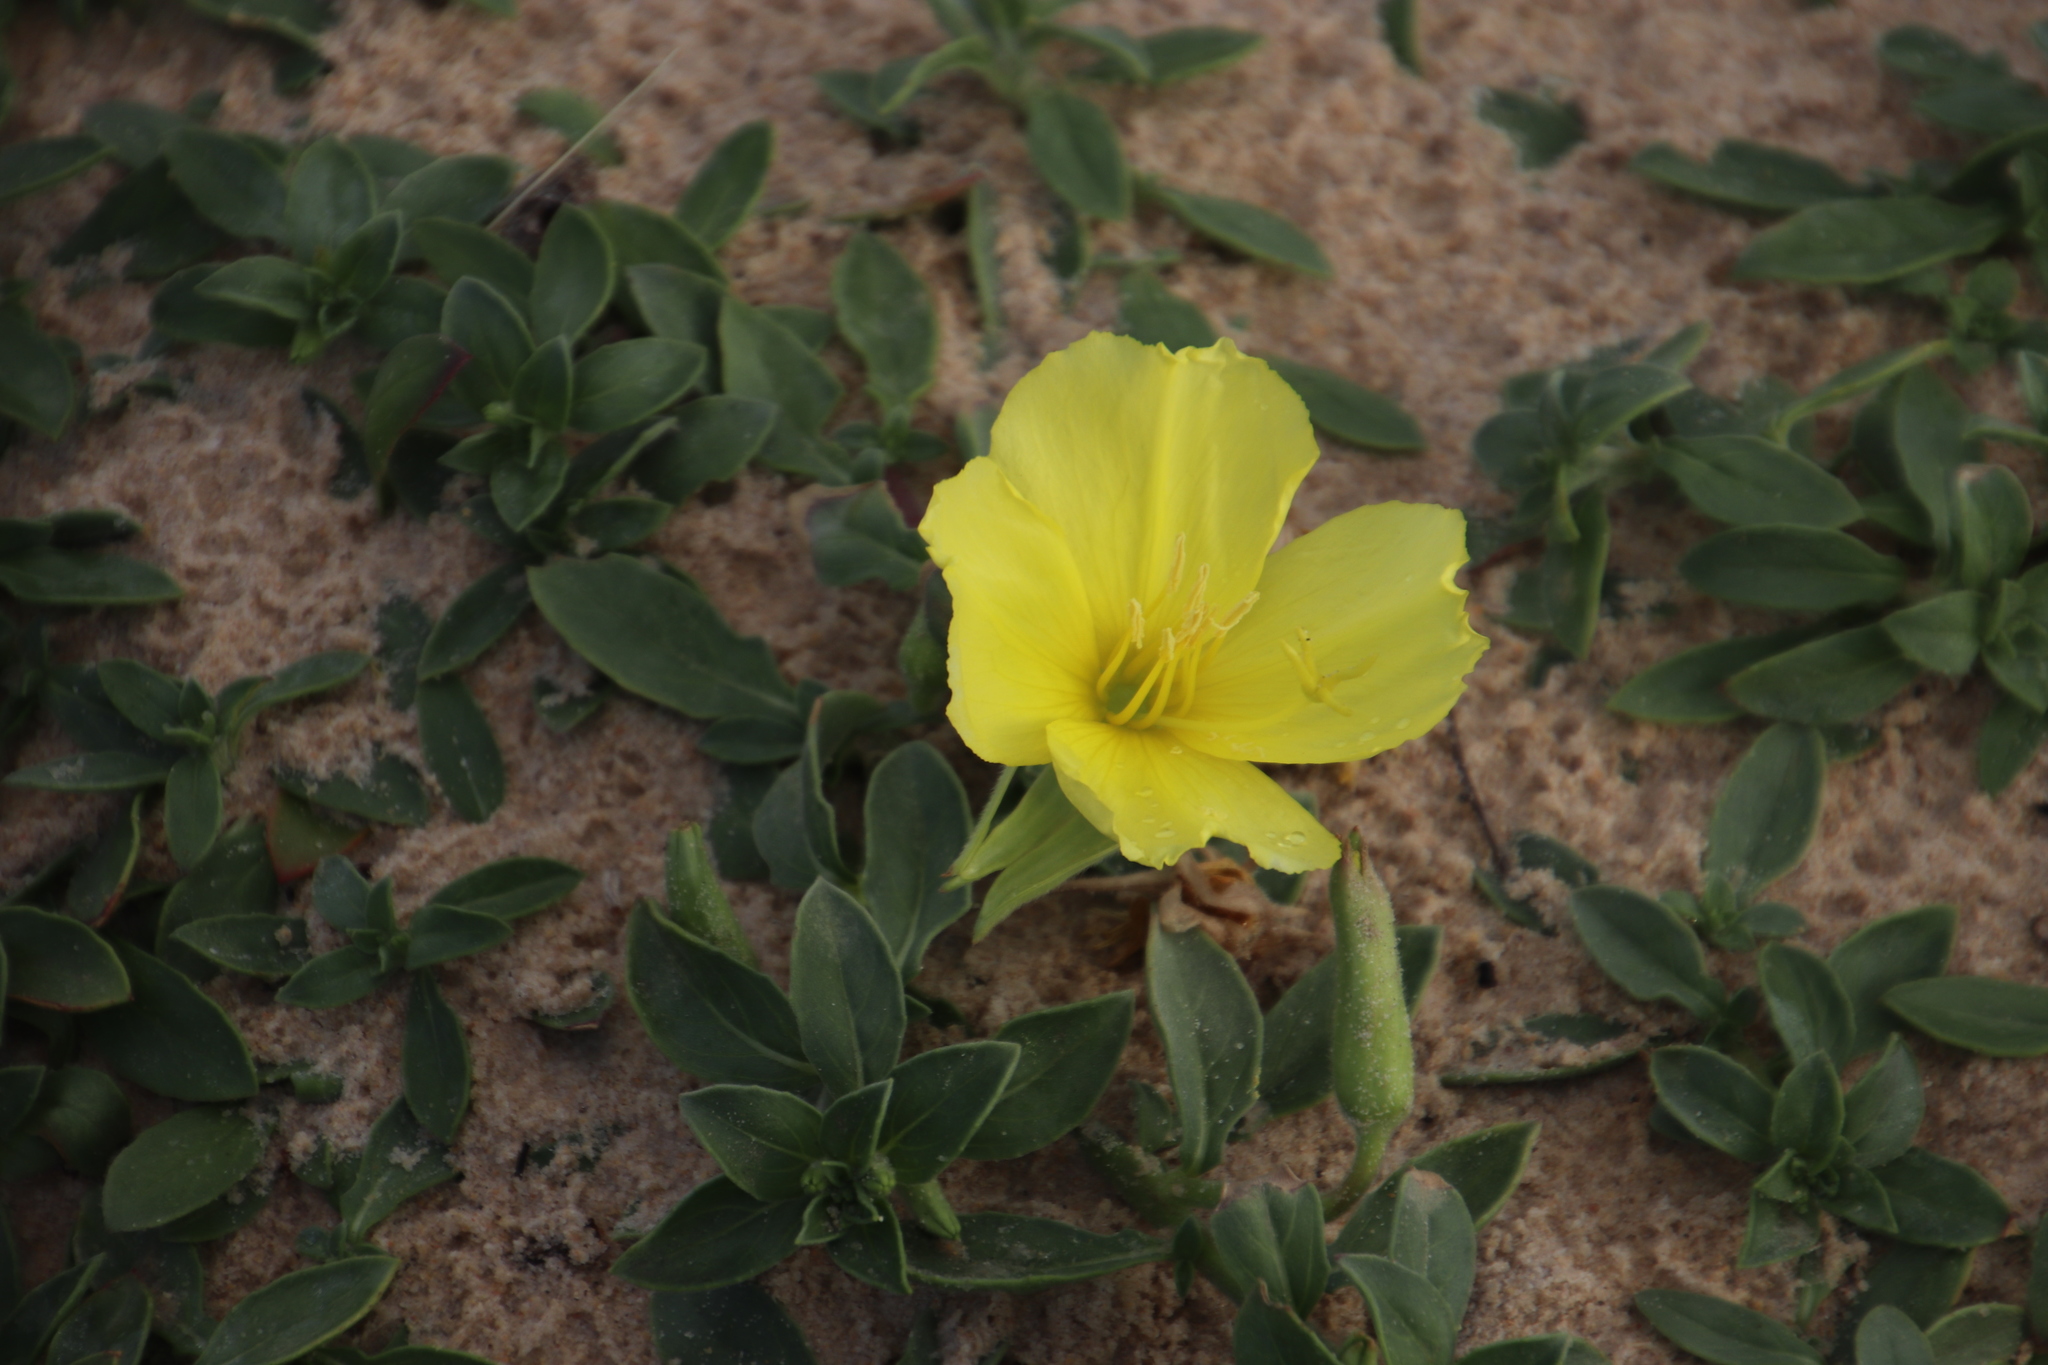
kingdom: Plantae
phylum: Tracheophyta
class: Magnoliopsida
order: Myrtales
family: Onagraceae
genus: Oenothera
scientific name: Oenothera drummondii
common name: Beach evening-primrose
